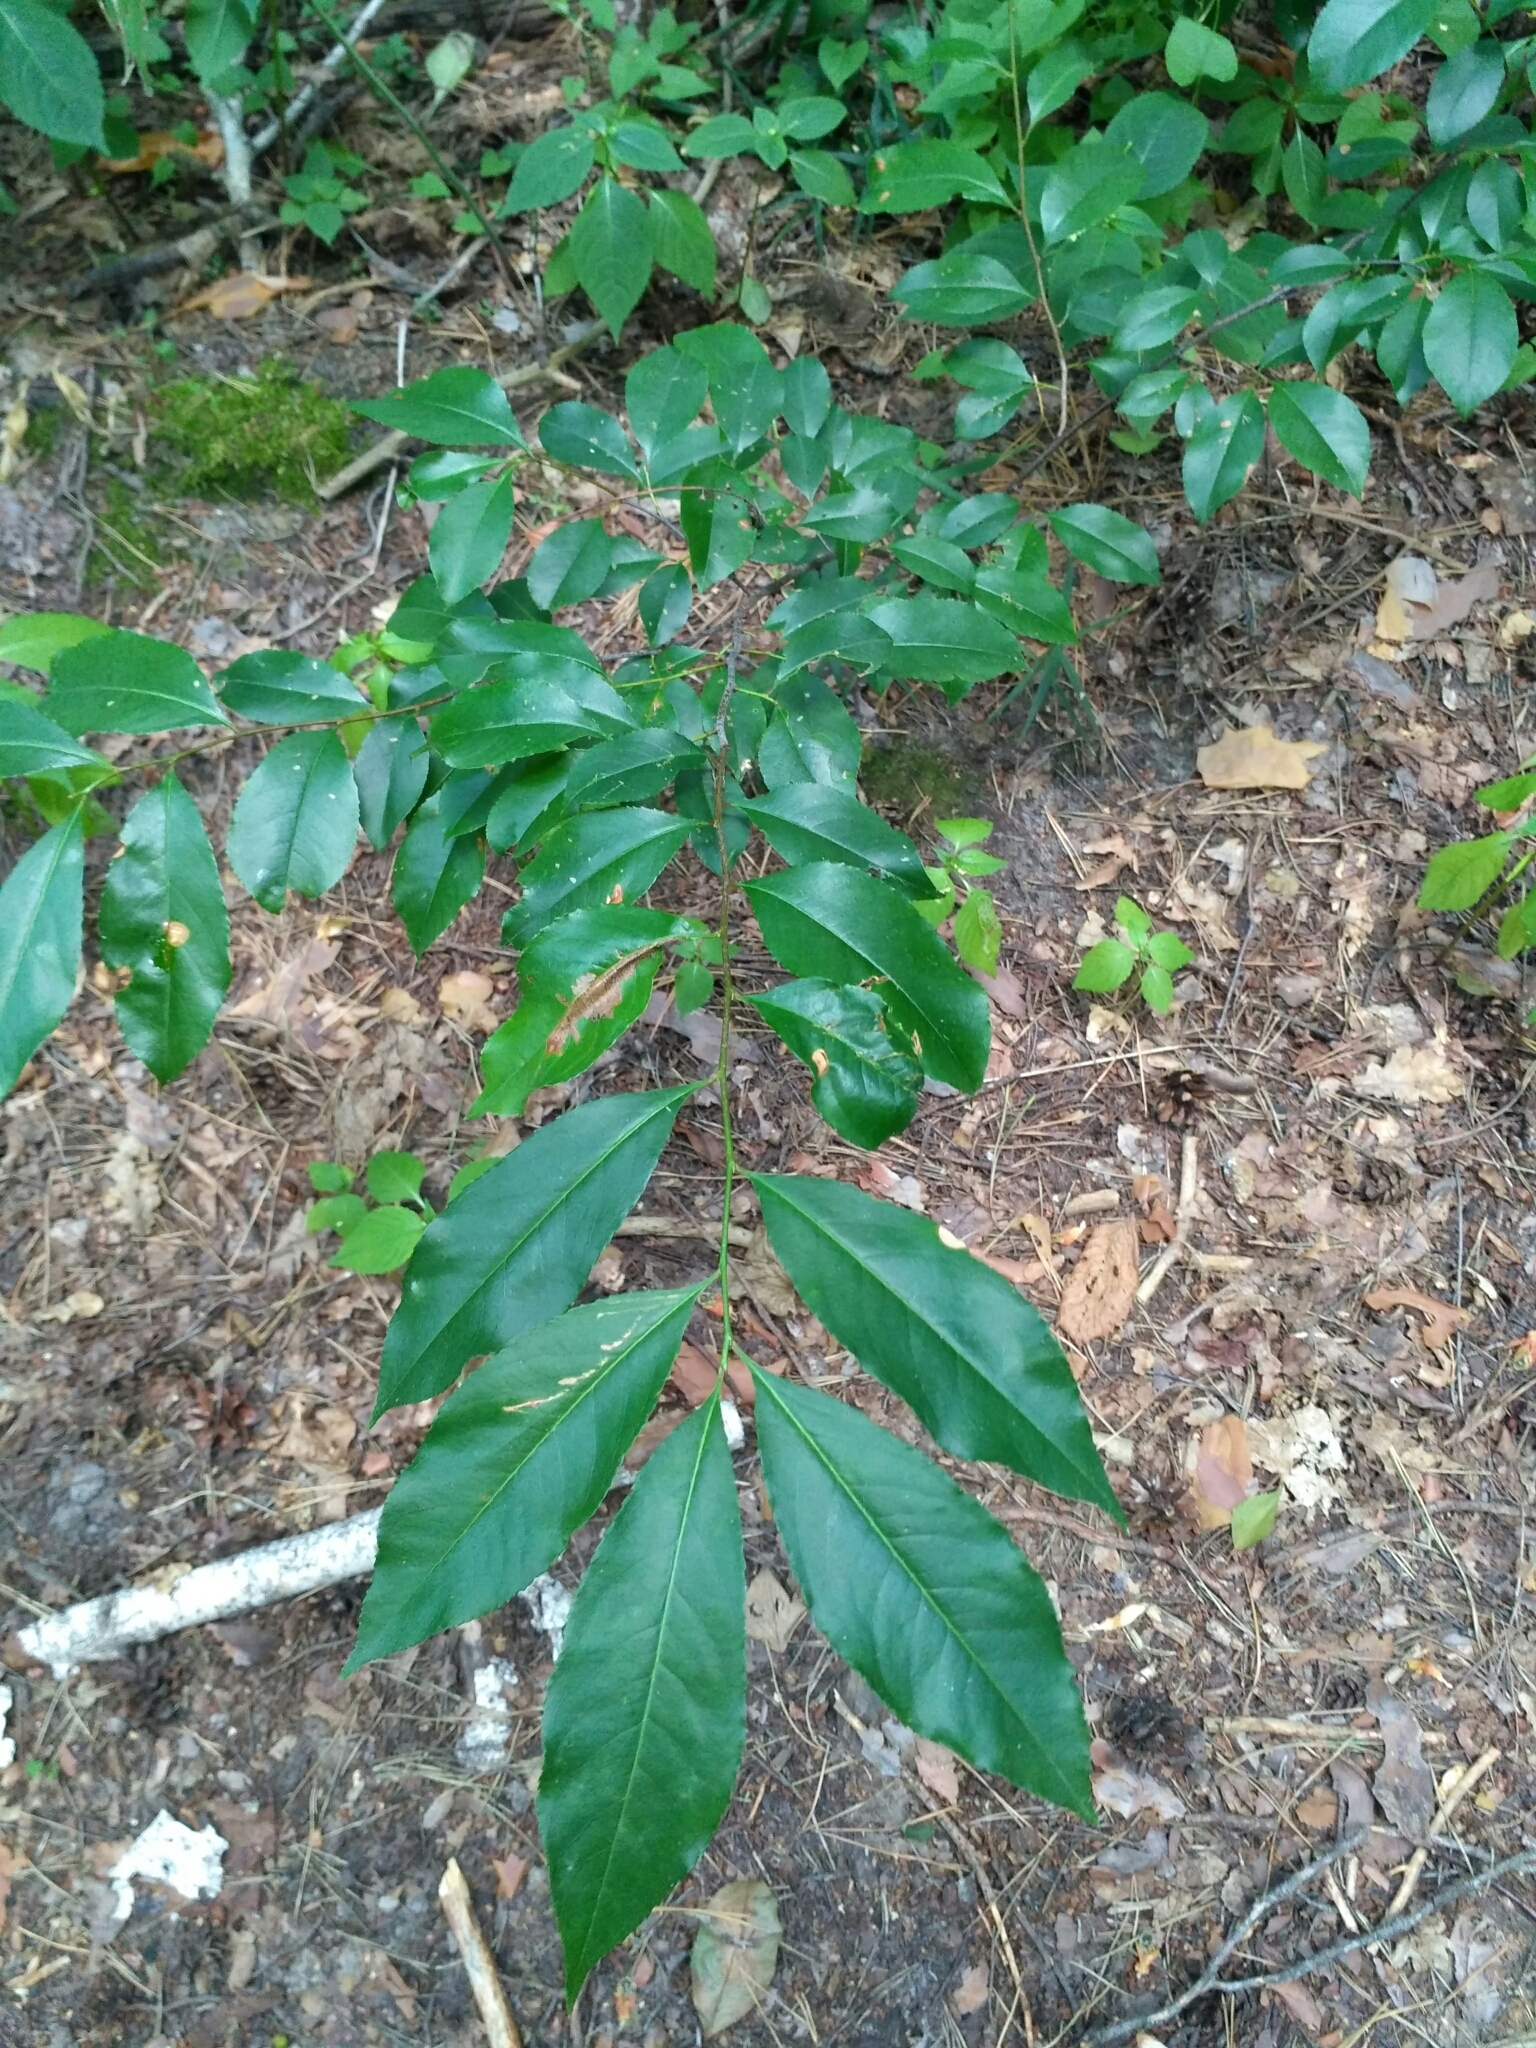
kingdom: Plantae
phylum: Tracheophyta
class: Magnoliopsida
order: Rosales
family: Rosaceae
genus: Prunus
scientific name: Prunus serotina
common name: Black cherry
